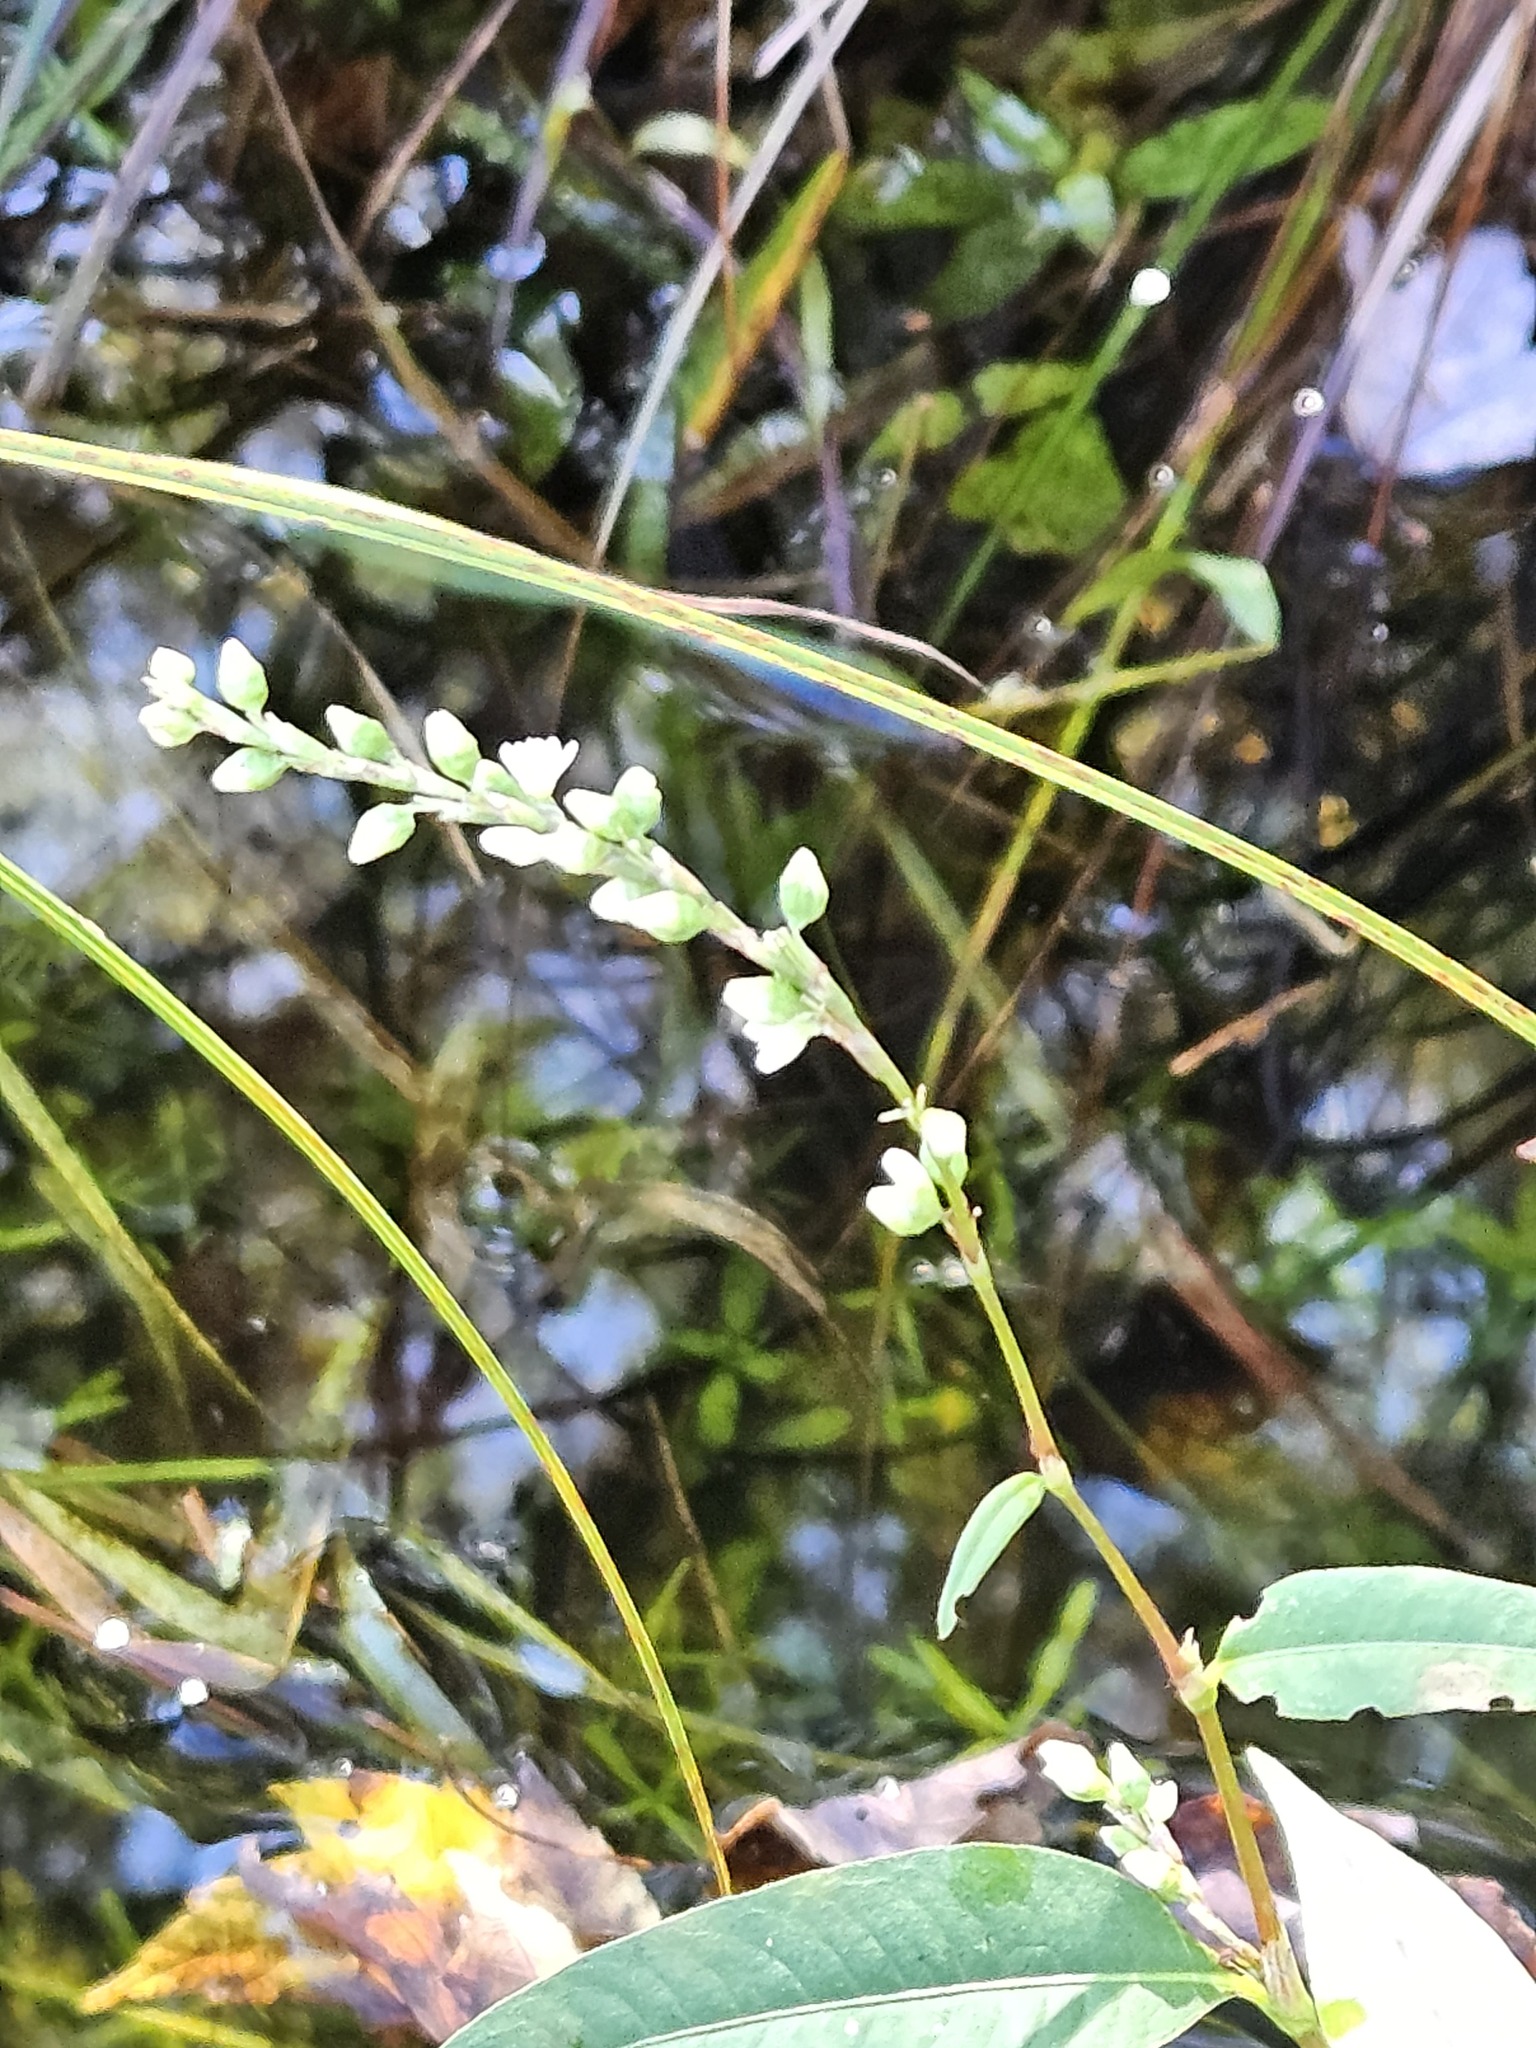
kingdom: Plantae
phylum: Tracheophyta
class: Magnoliopsida
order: Caryophyllales
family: Polygonaceae
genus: Persicaria
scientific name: Persicaria robustior
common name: Stout smartweed
